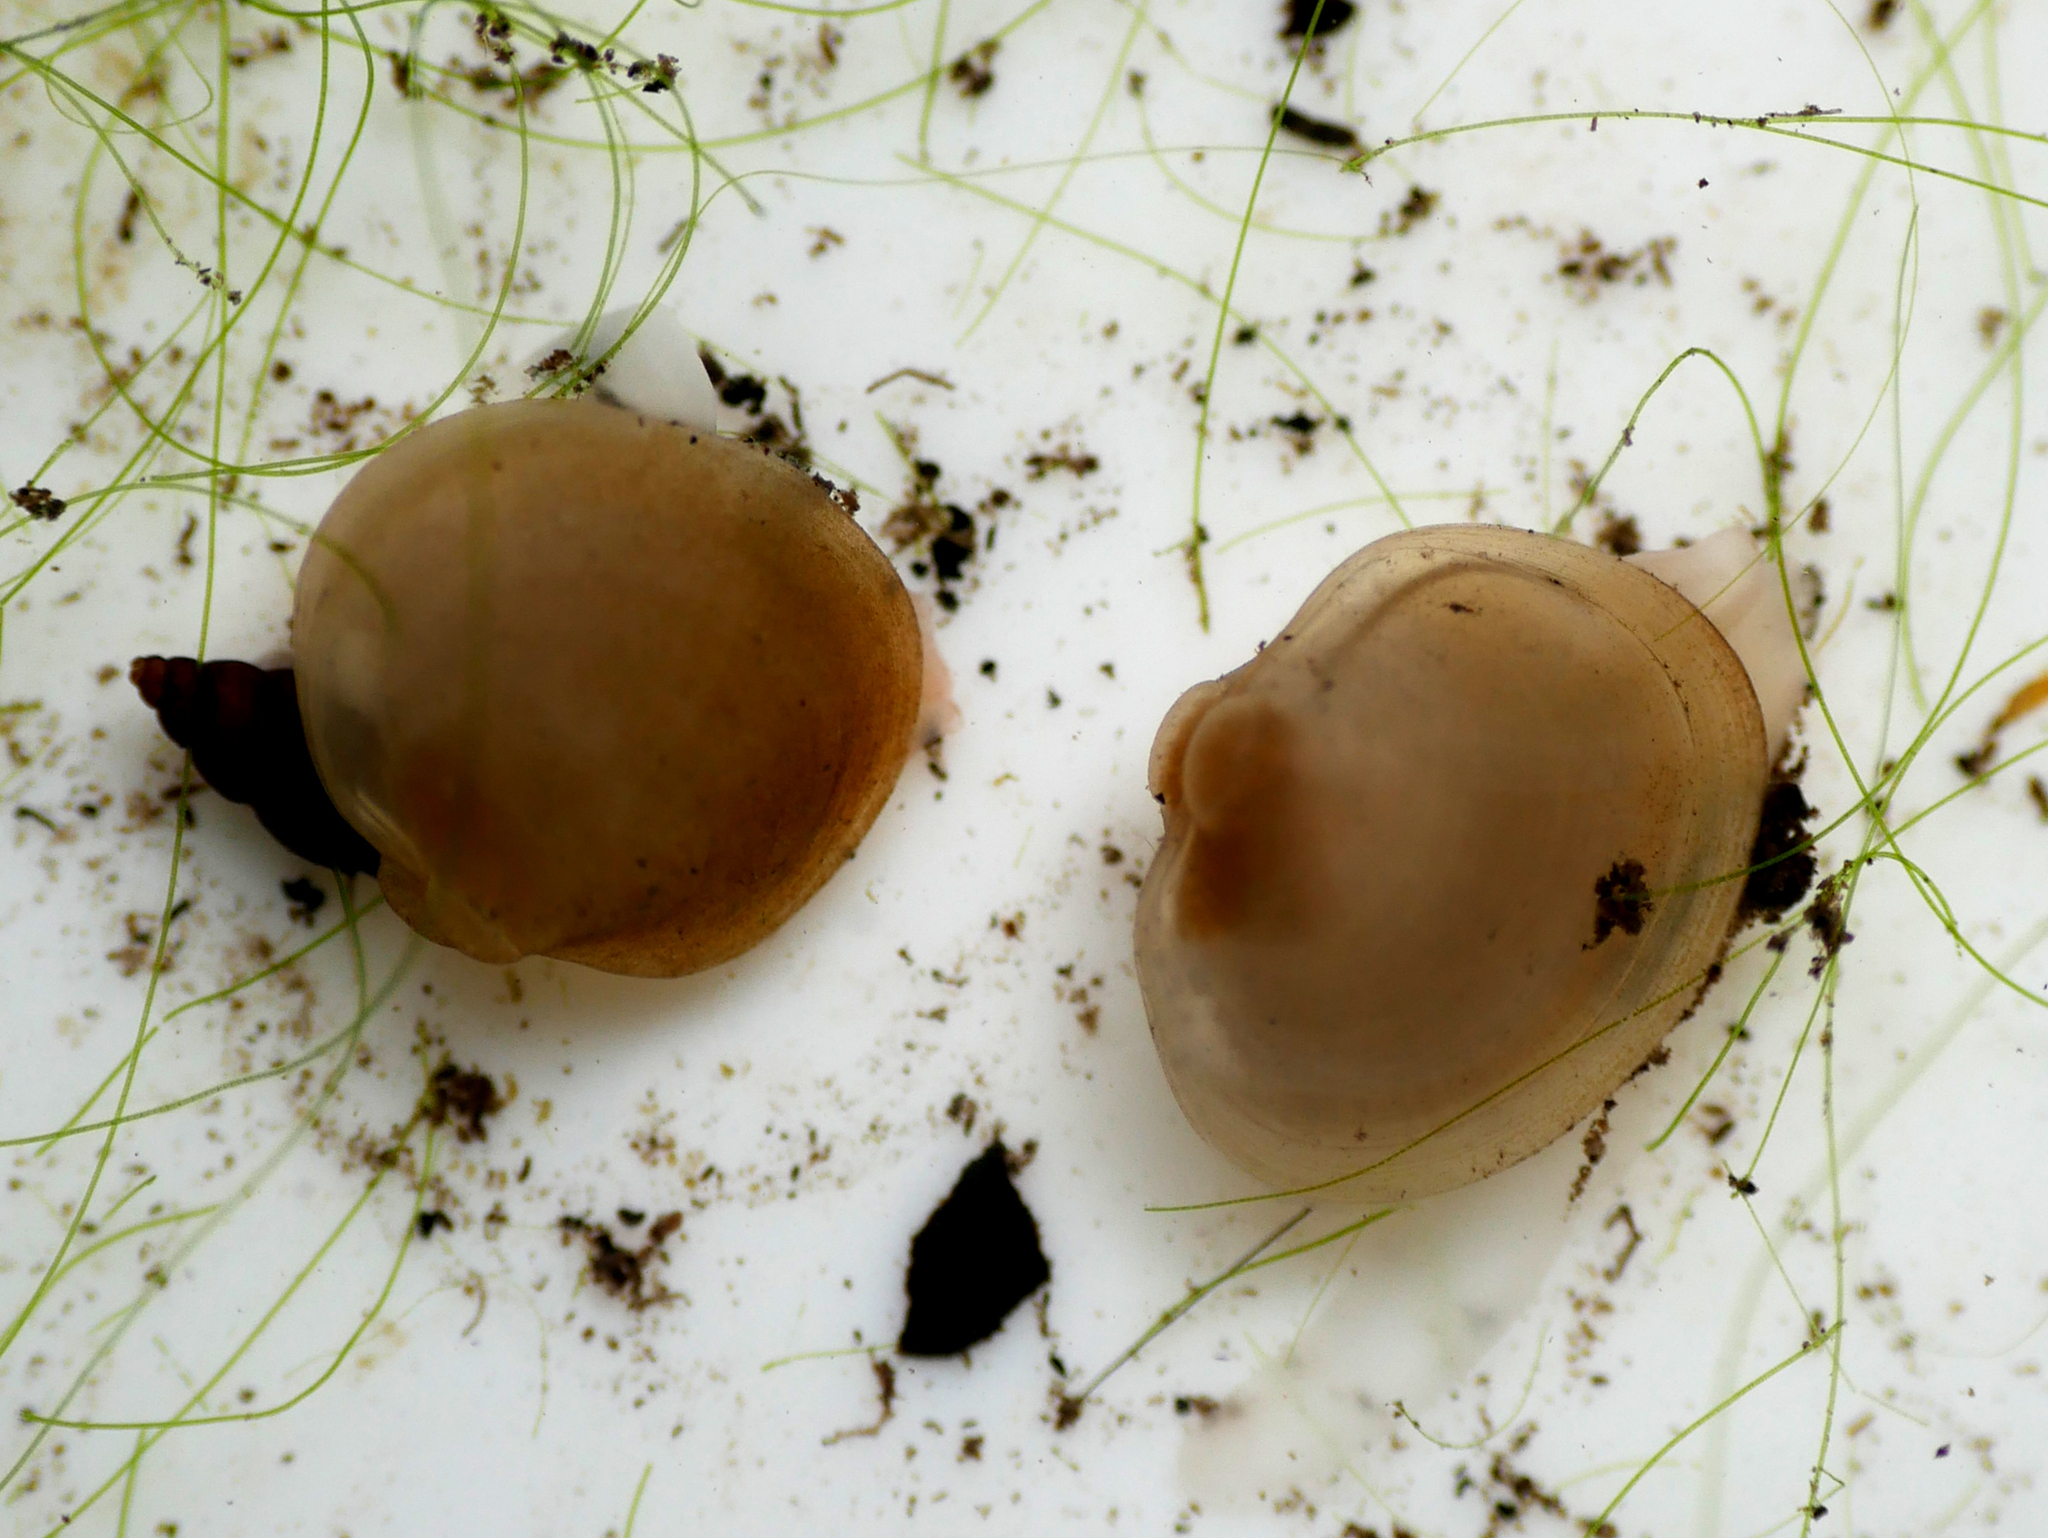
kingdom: Animalia
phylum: Mollusca
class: Bivalvia
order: Sphaeriida
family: Sphaeriidae
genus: Musculium
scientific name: Musculium lacustre
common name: Lake fingernailclam
